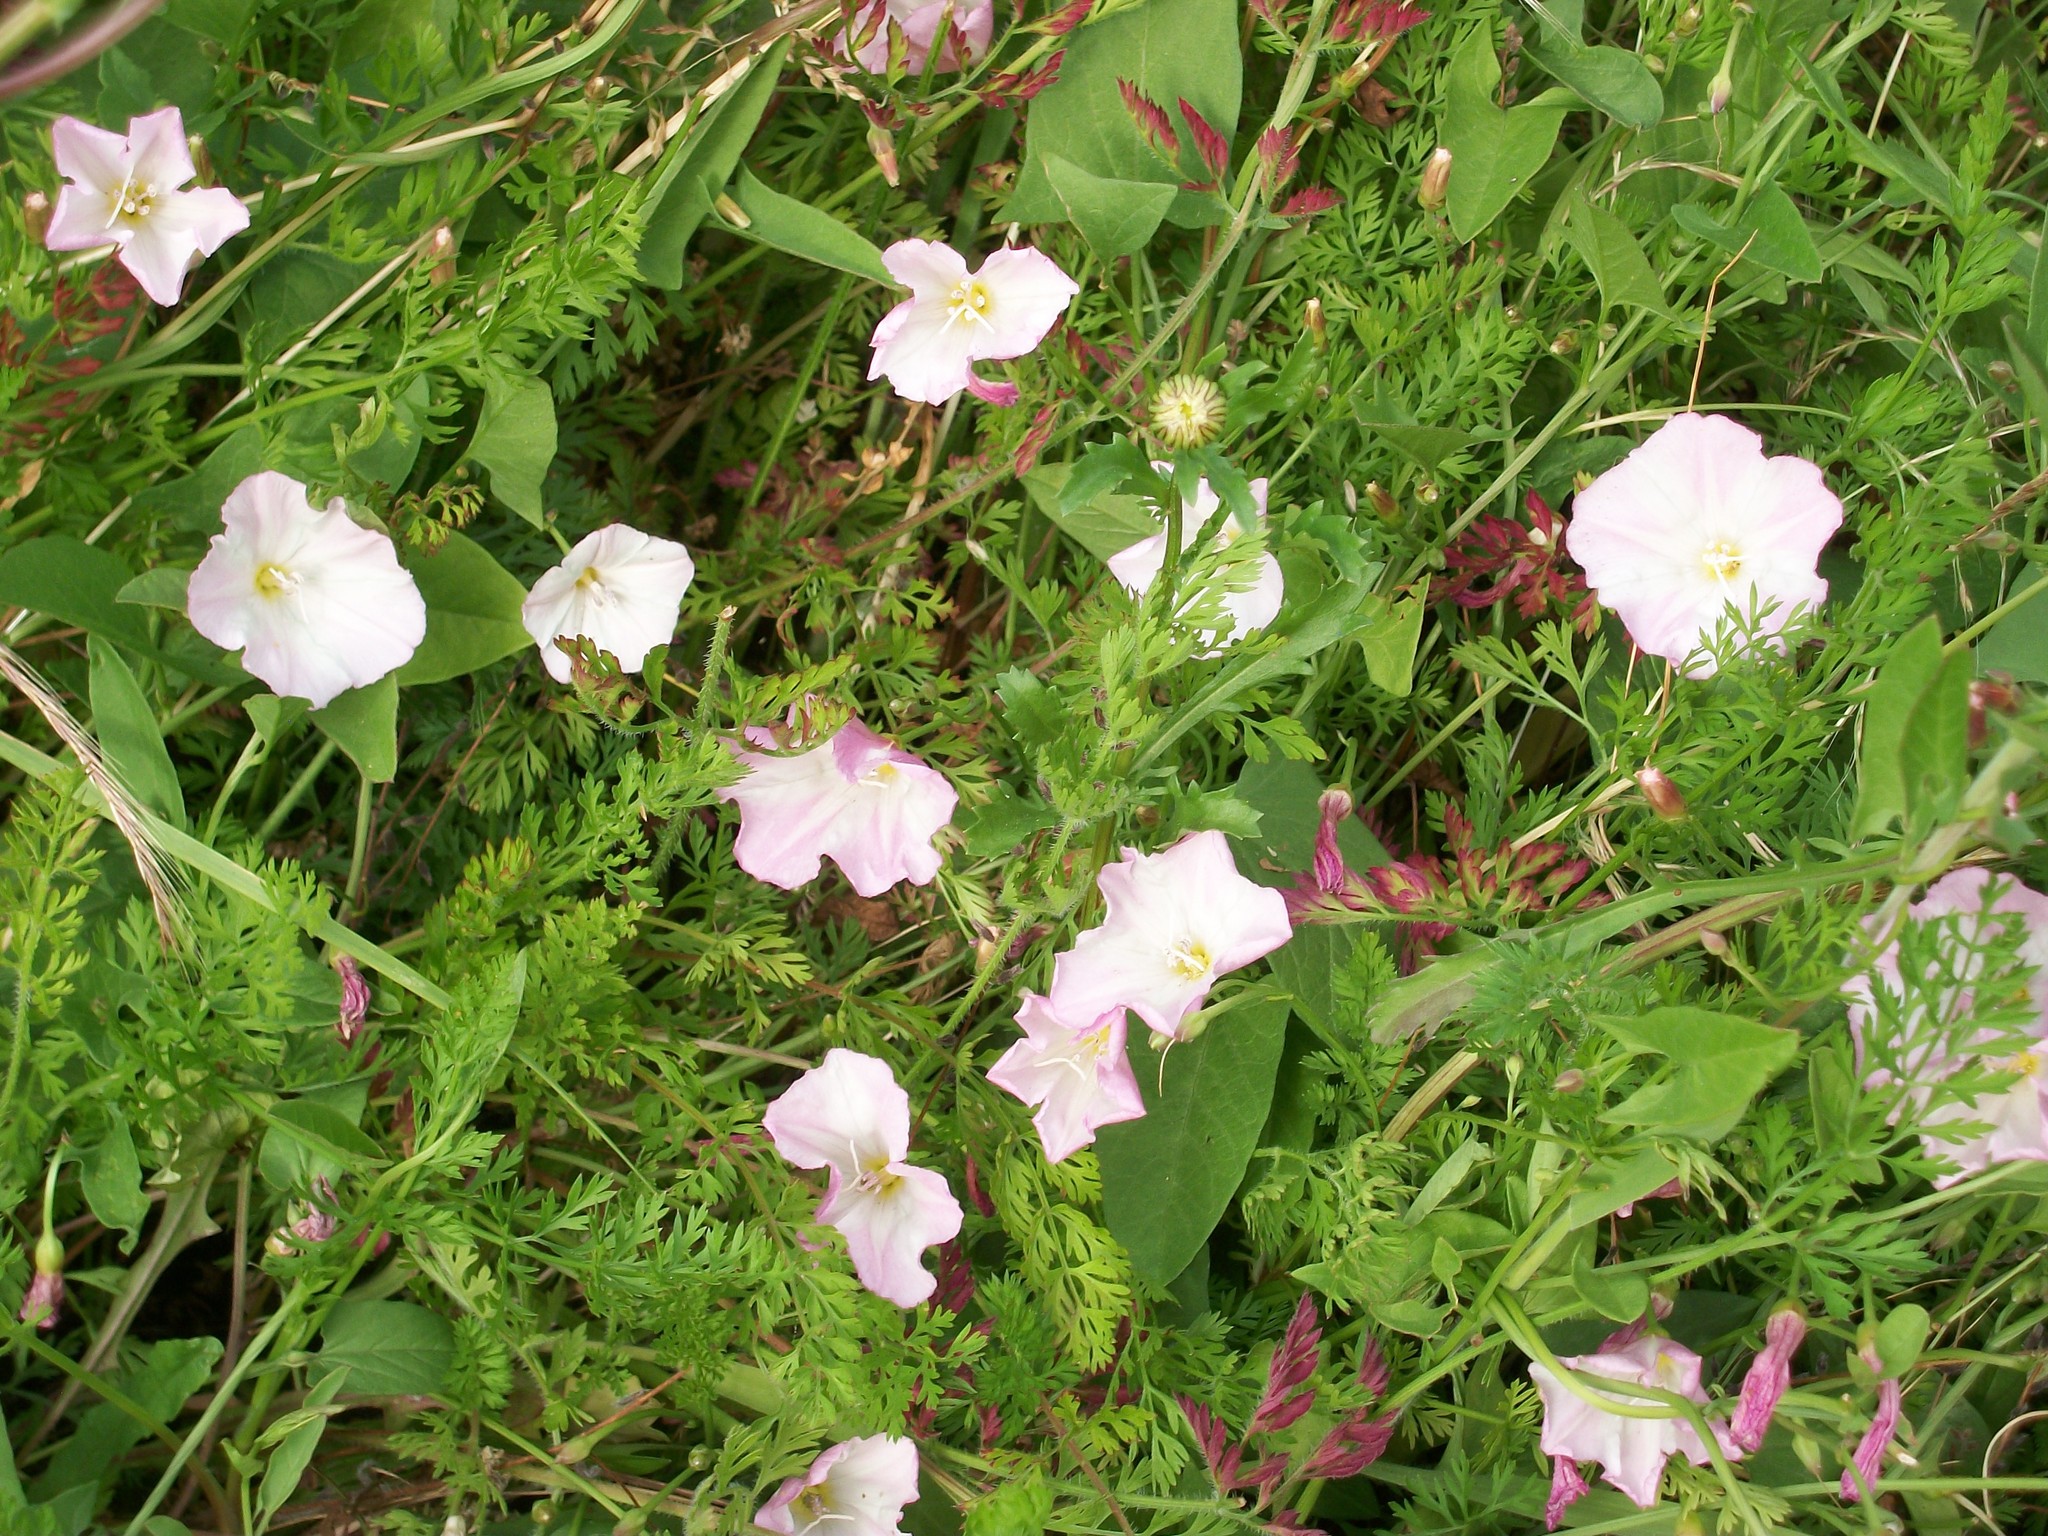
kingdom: Plantae
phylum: Tracheophyta
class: Magnoliopsida
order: Solanales
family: Convolvulaceae
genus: Convolvulus
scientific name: Convolvulus arvensis
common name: Field bindweed
